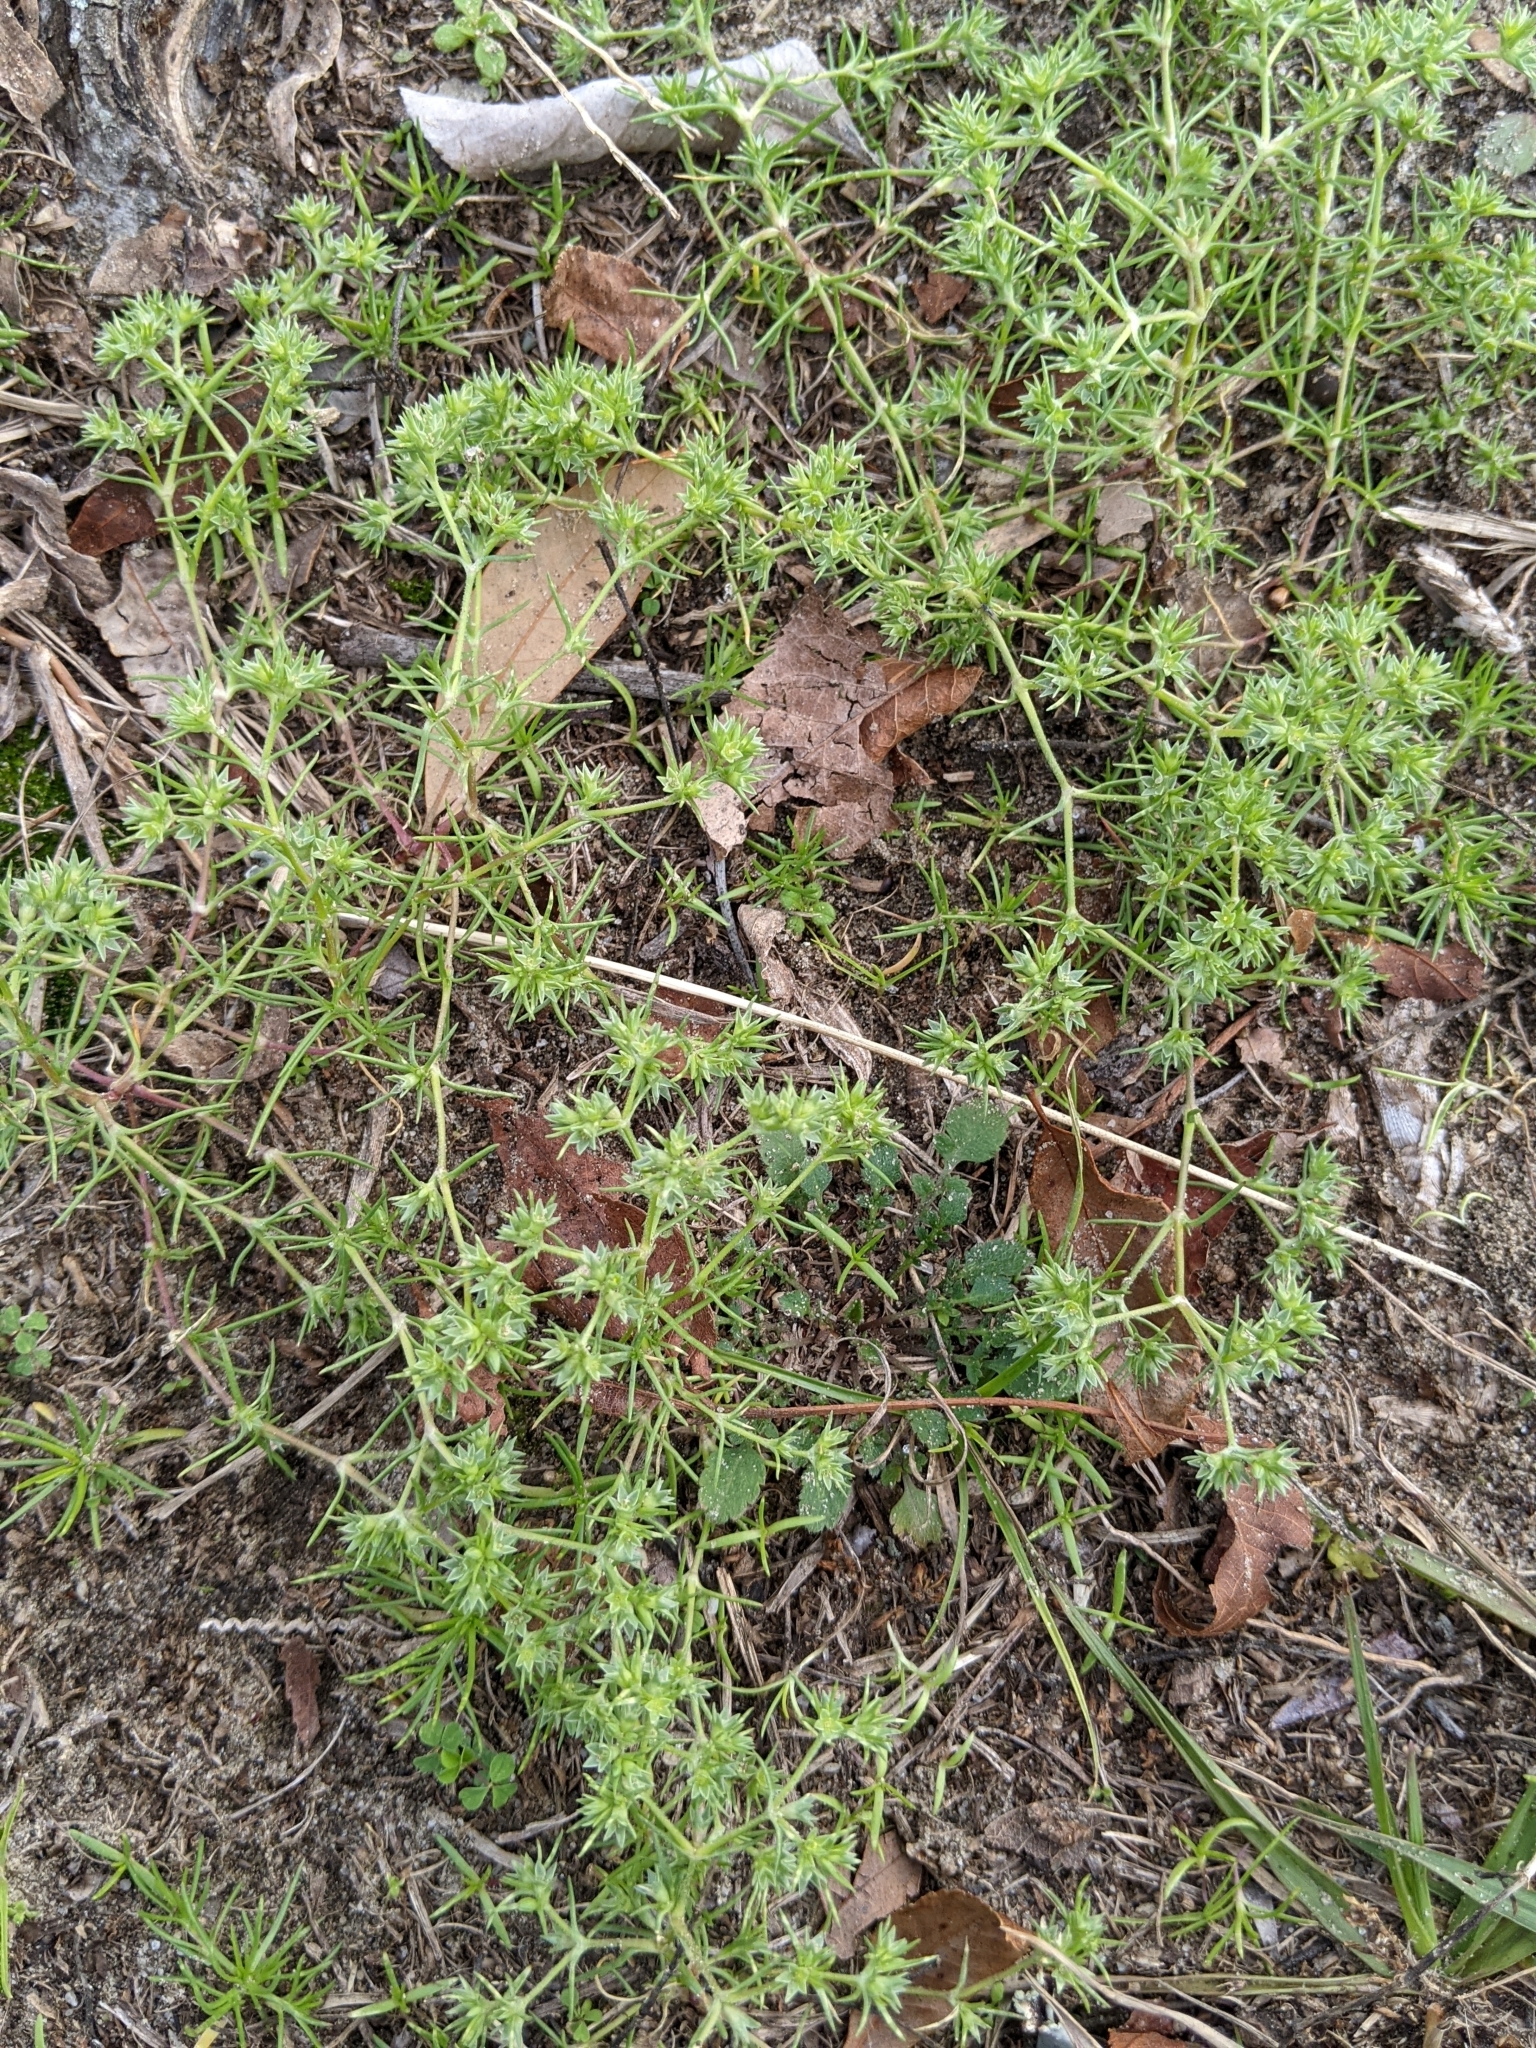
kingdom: Plantae
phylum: Tracheophyta
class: Magnoliopsida
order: Caryophyllales
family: Caryophyllaceae
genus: Scleranthus
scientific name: Scleranthus annuus
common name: Annual knawel
